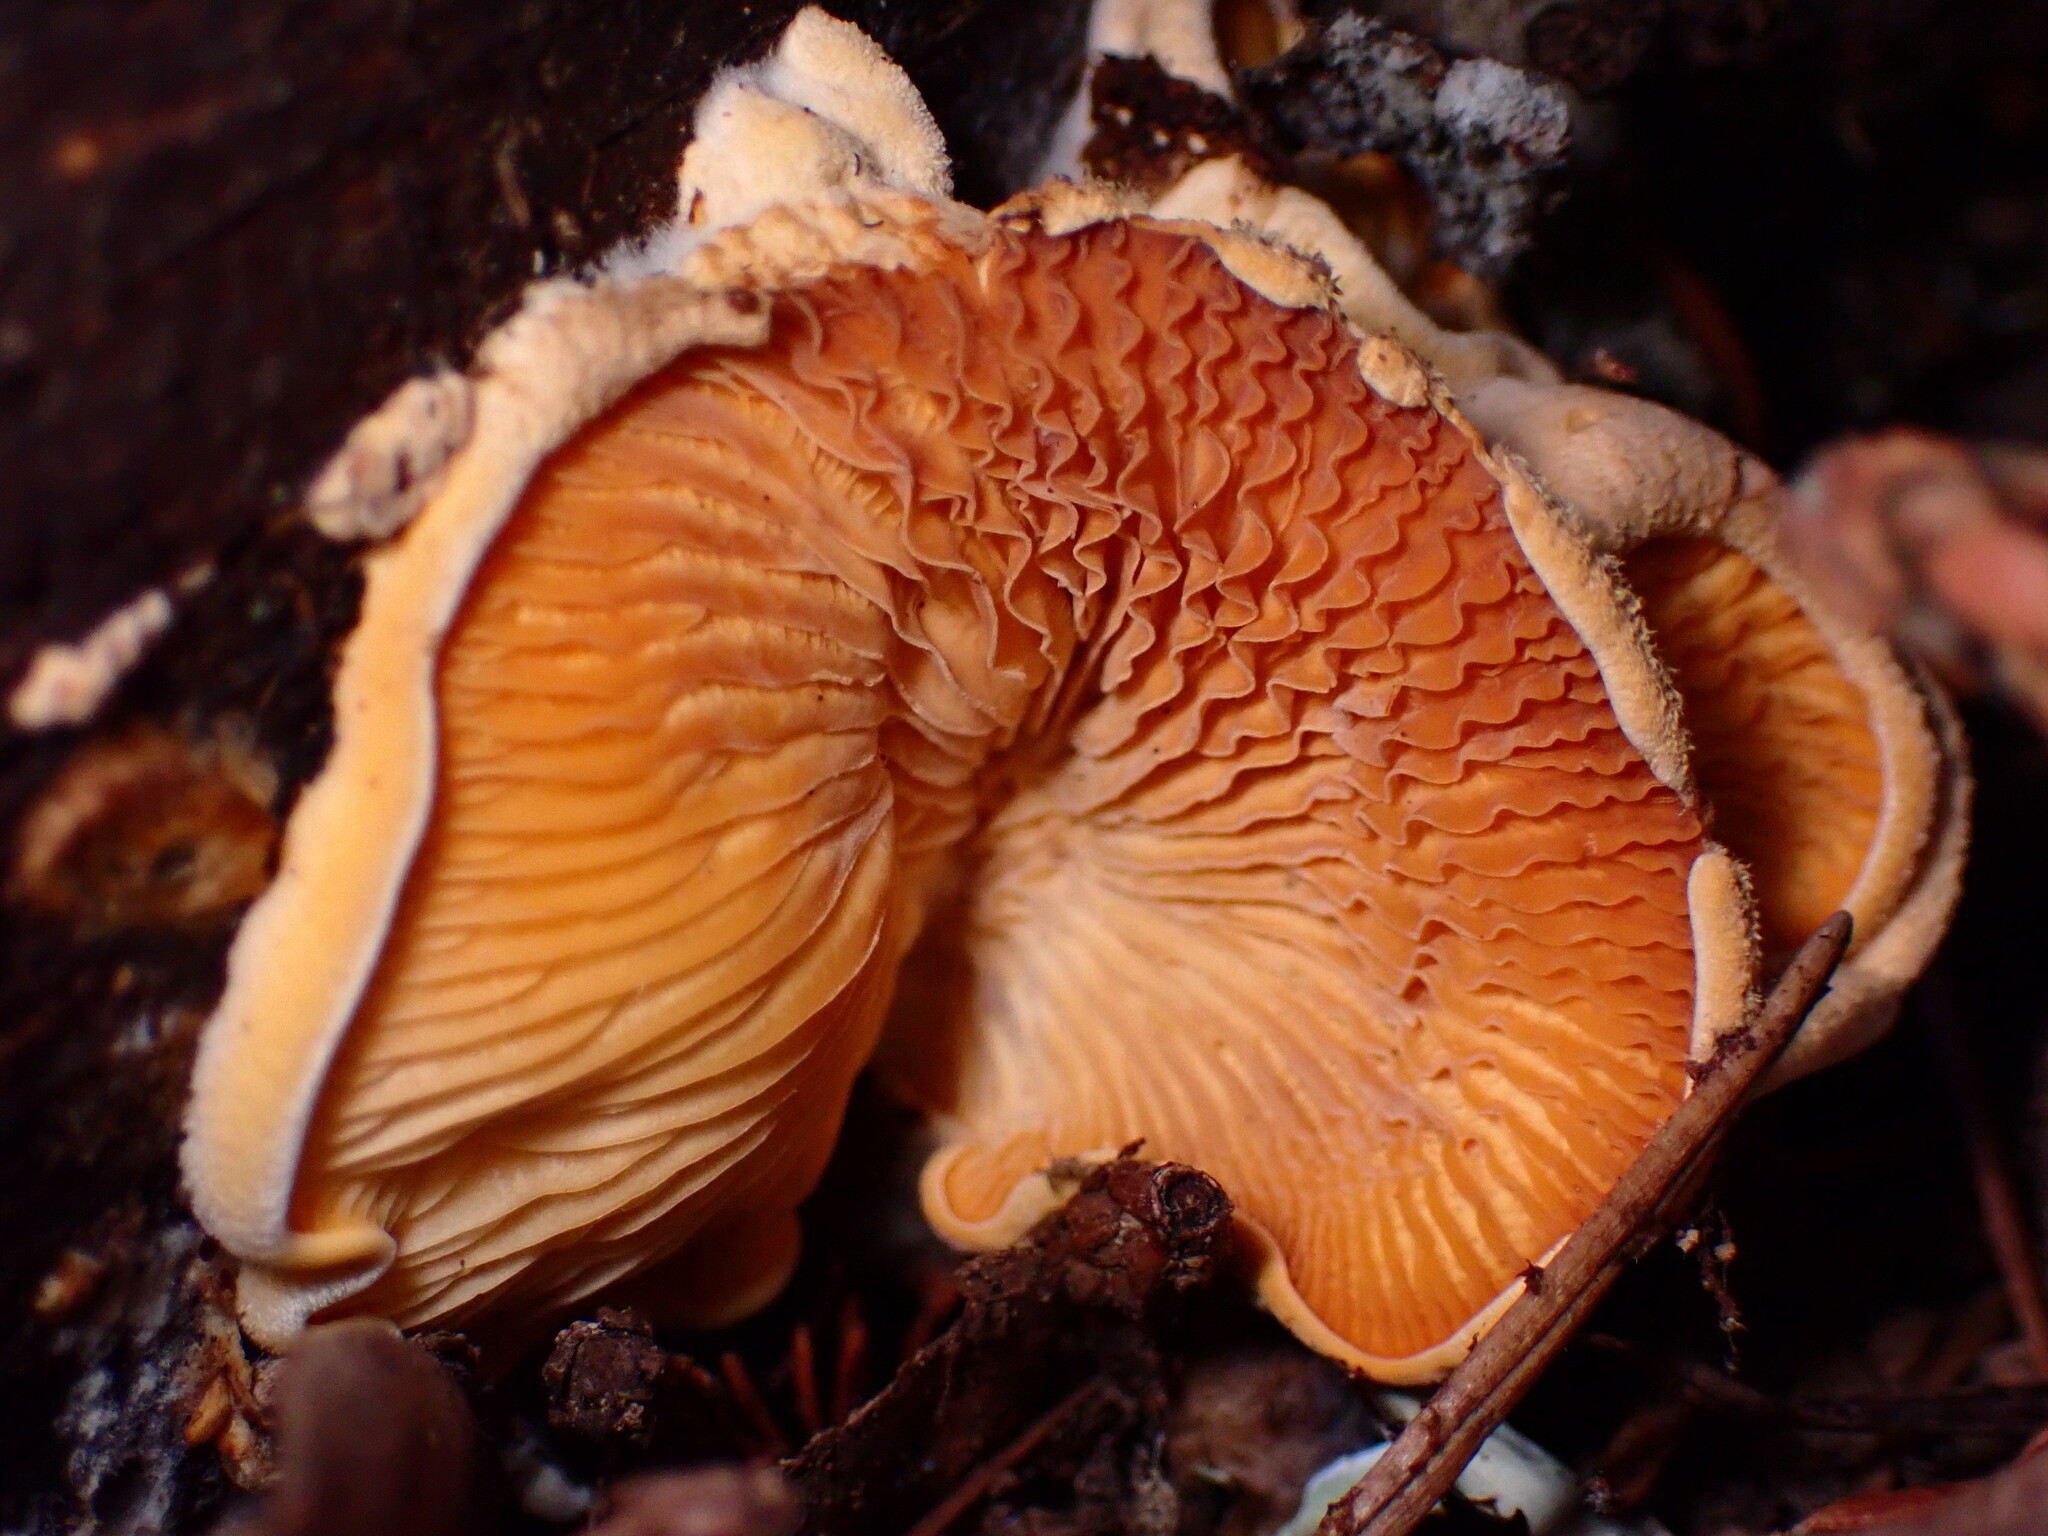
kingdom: Fungi
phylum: Basidiomycota
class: Agaricomycetes
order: Agaricales
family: Phyllotopsidaceae
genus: Phyllotopsis
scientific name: Phyllotopsis nidulans
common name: Orange mock oyster
